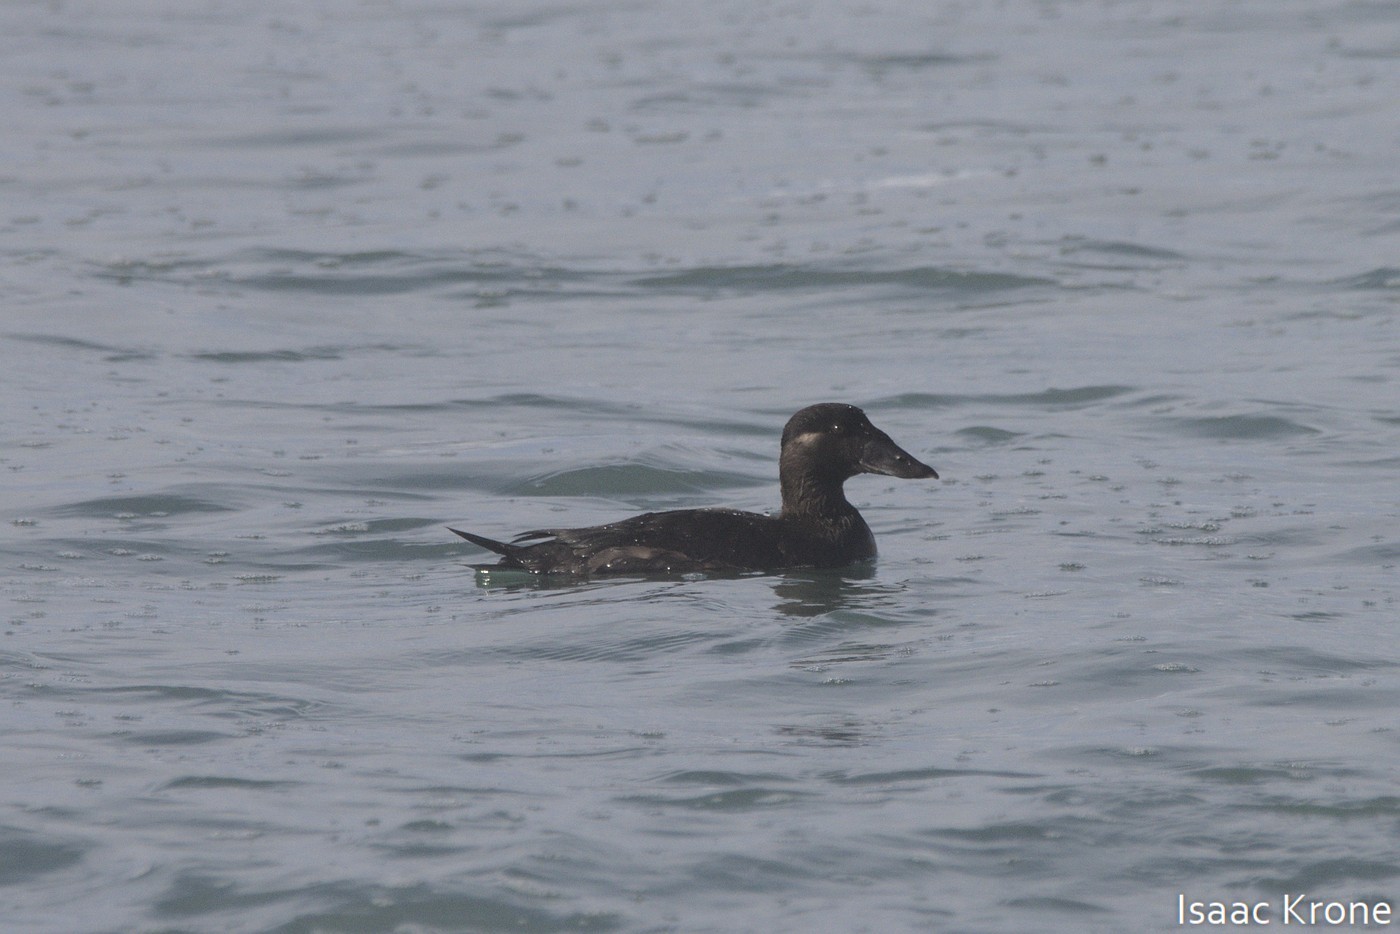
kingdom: Animalia
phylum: Chordata
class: Aves
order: Anseriformes
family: Anatidae
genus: Melanitta
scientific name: Melanitta perspicillata
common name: Surf scoter
